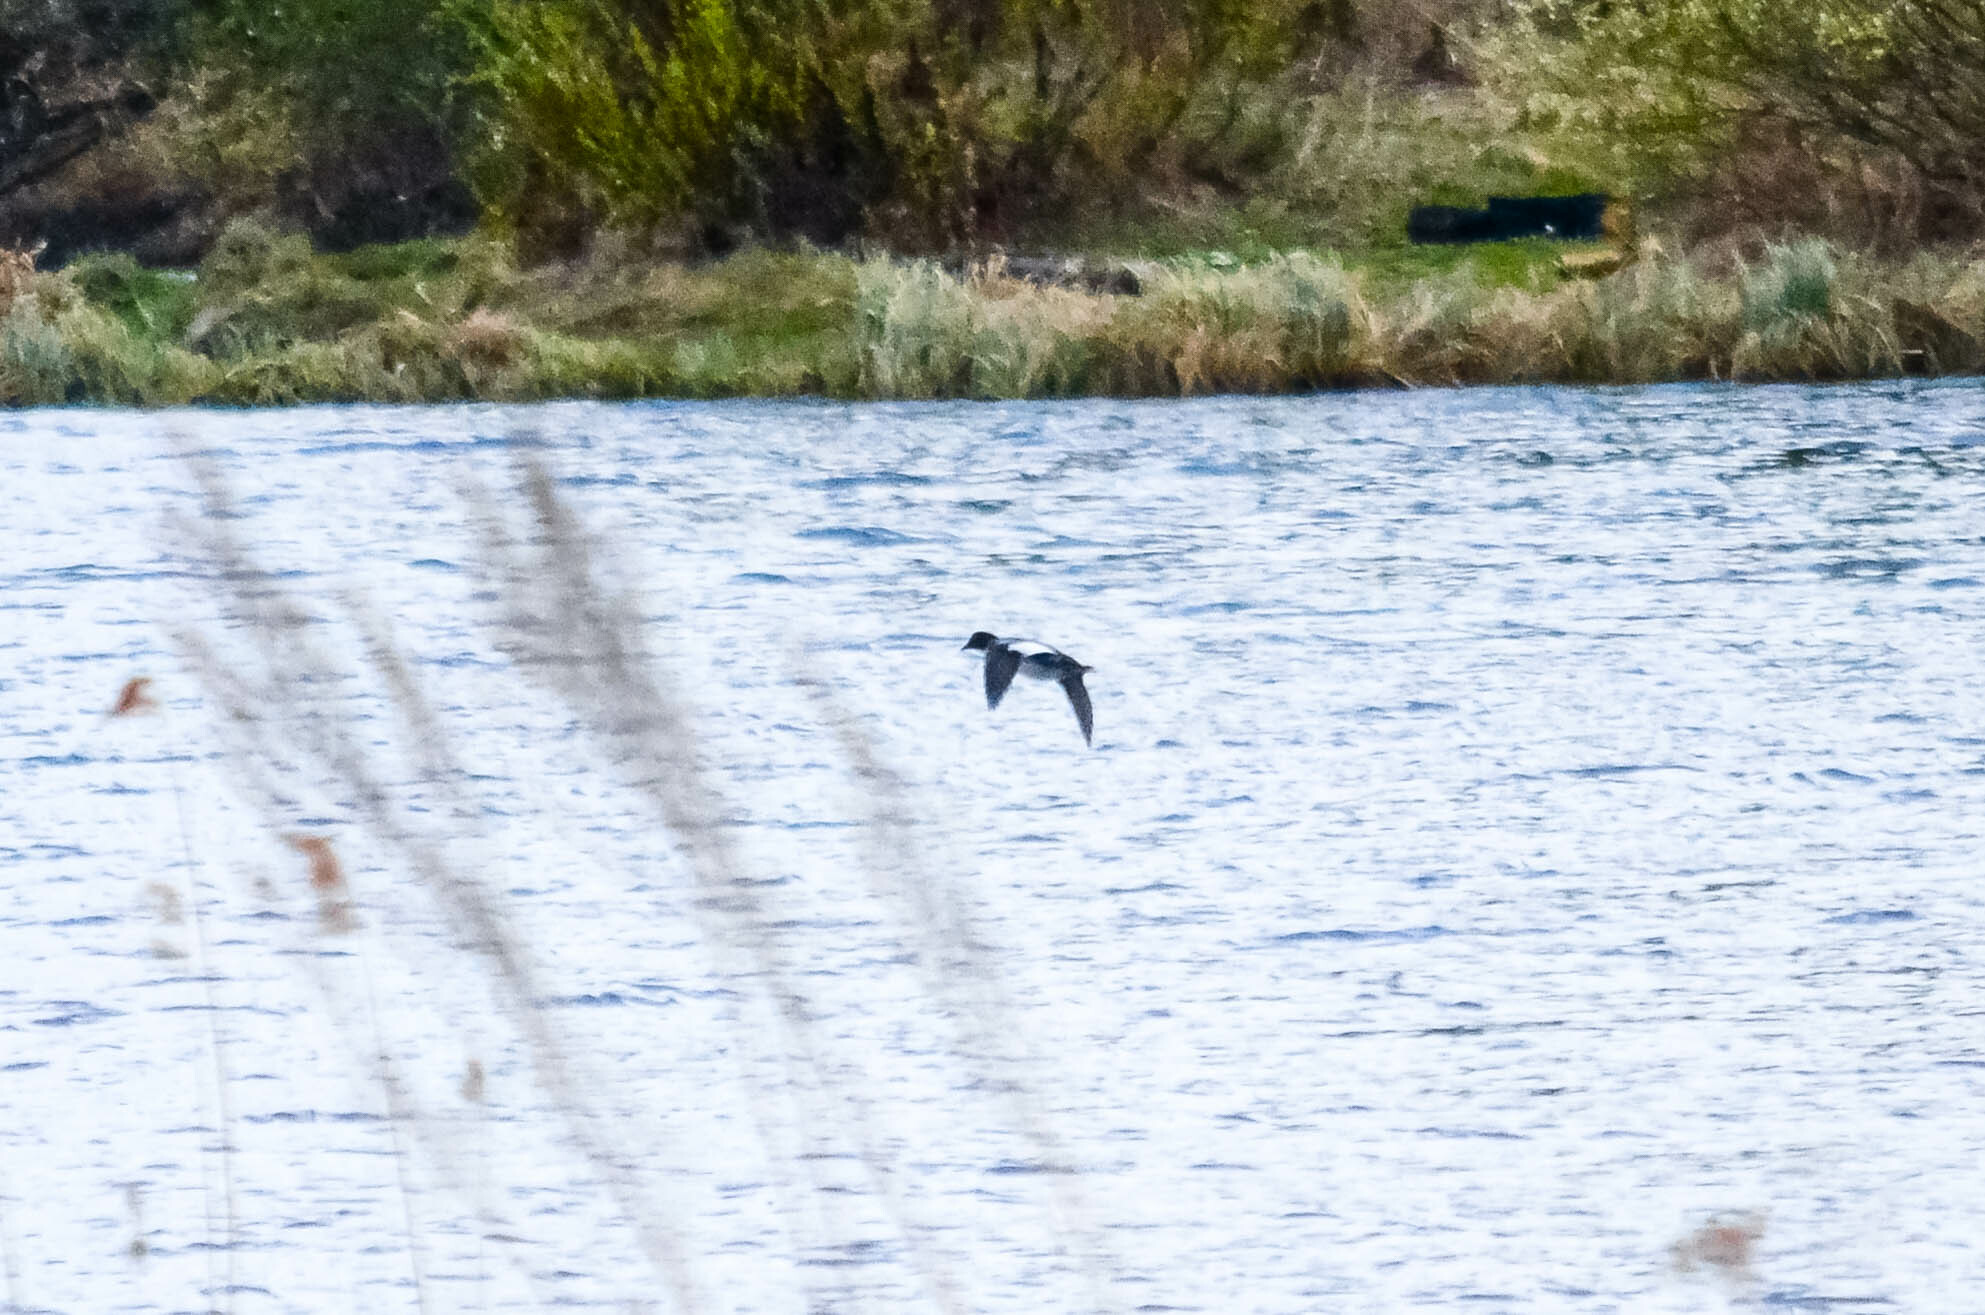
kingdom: Animalia
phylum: Chordata
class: Aves
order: Anseriformes
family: Anatidae
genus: Bucephala
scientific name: Bucephala clangula
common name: Common goldeneye
